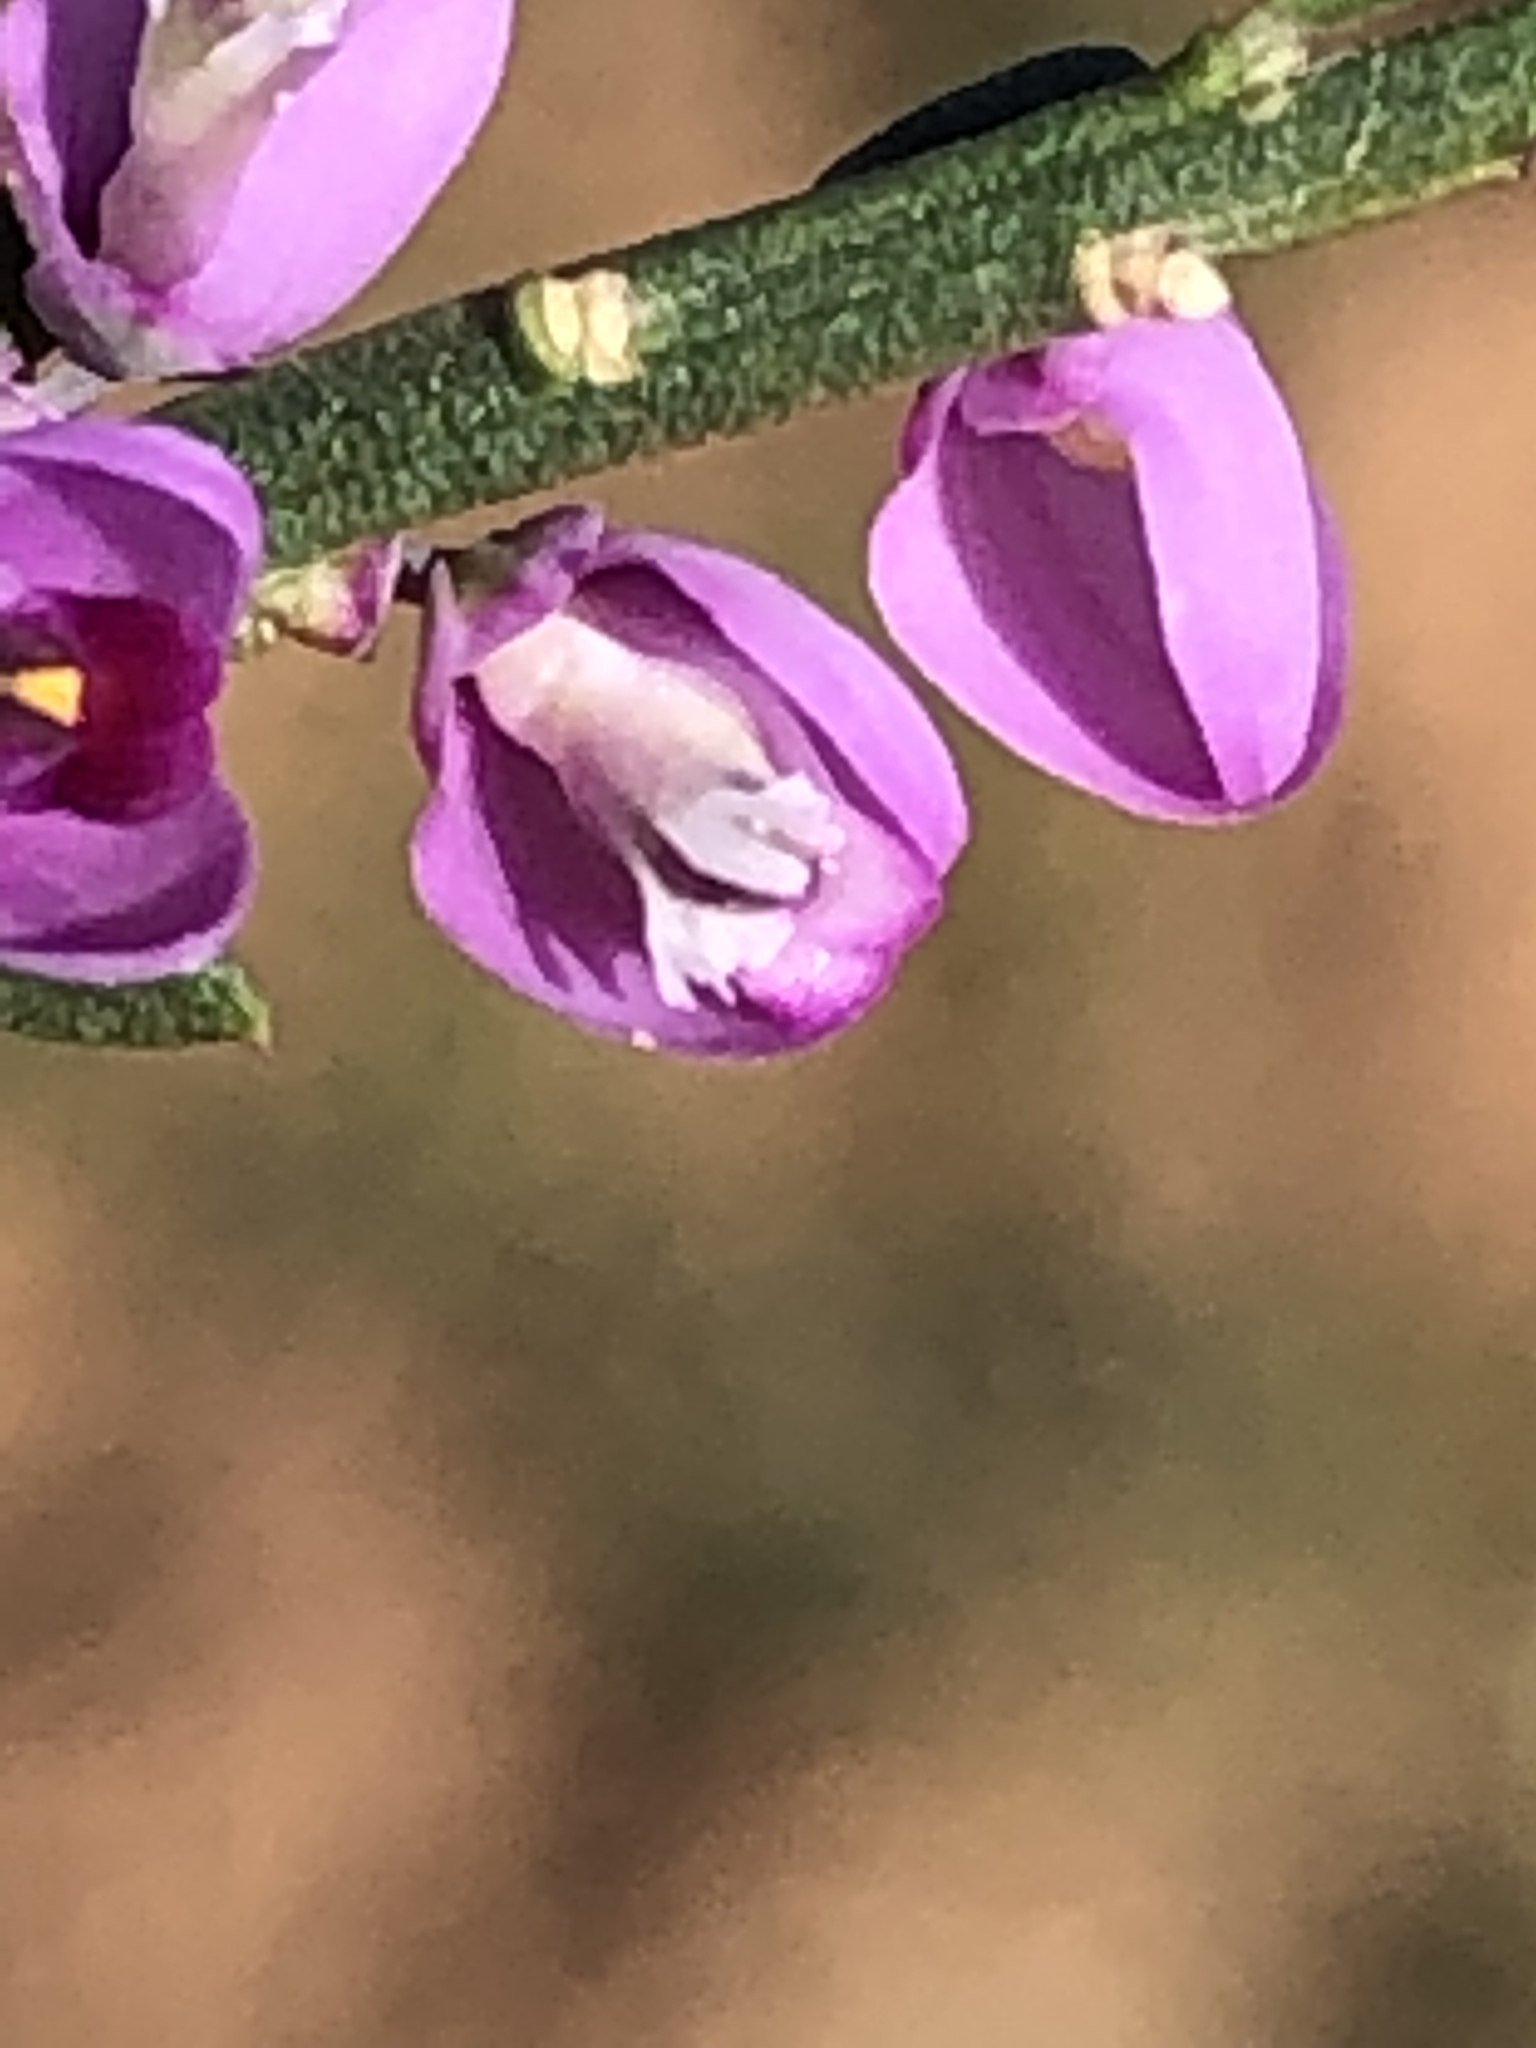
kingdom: Plantae
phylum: Tracheophyta
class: Magnoliopsida
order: Fabales
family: Polygalaceae
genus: Muraltia
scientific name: Muraltia spinosa
